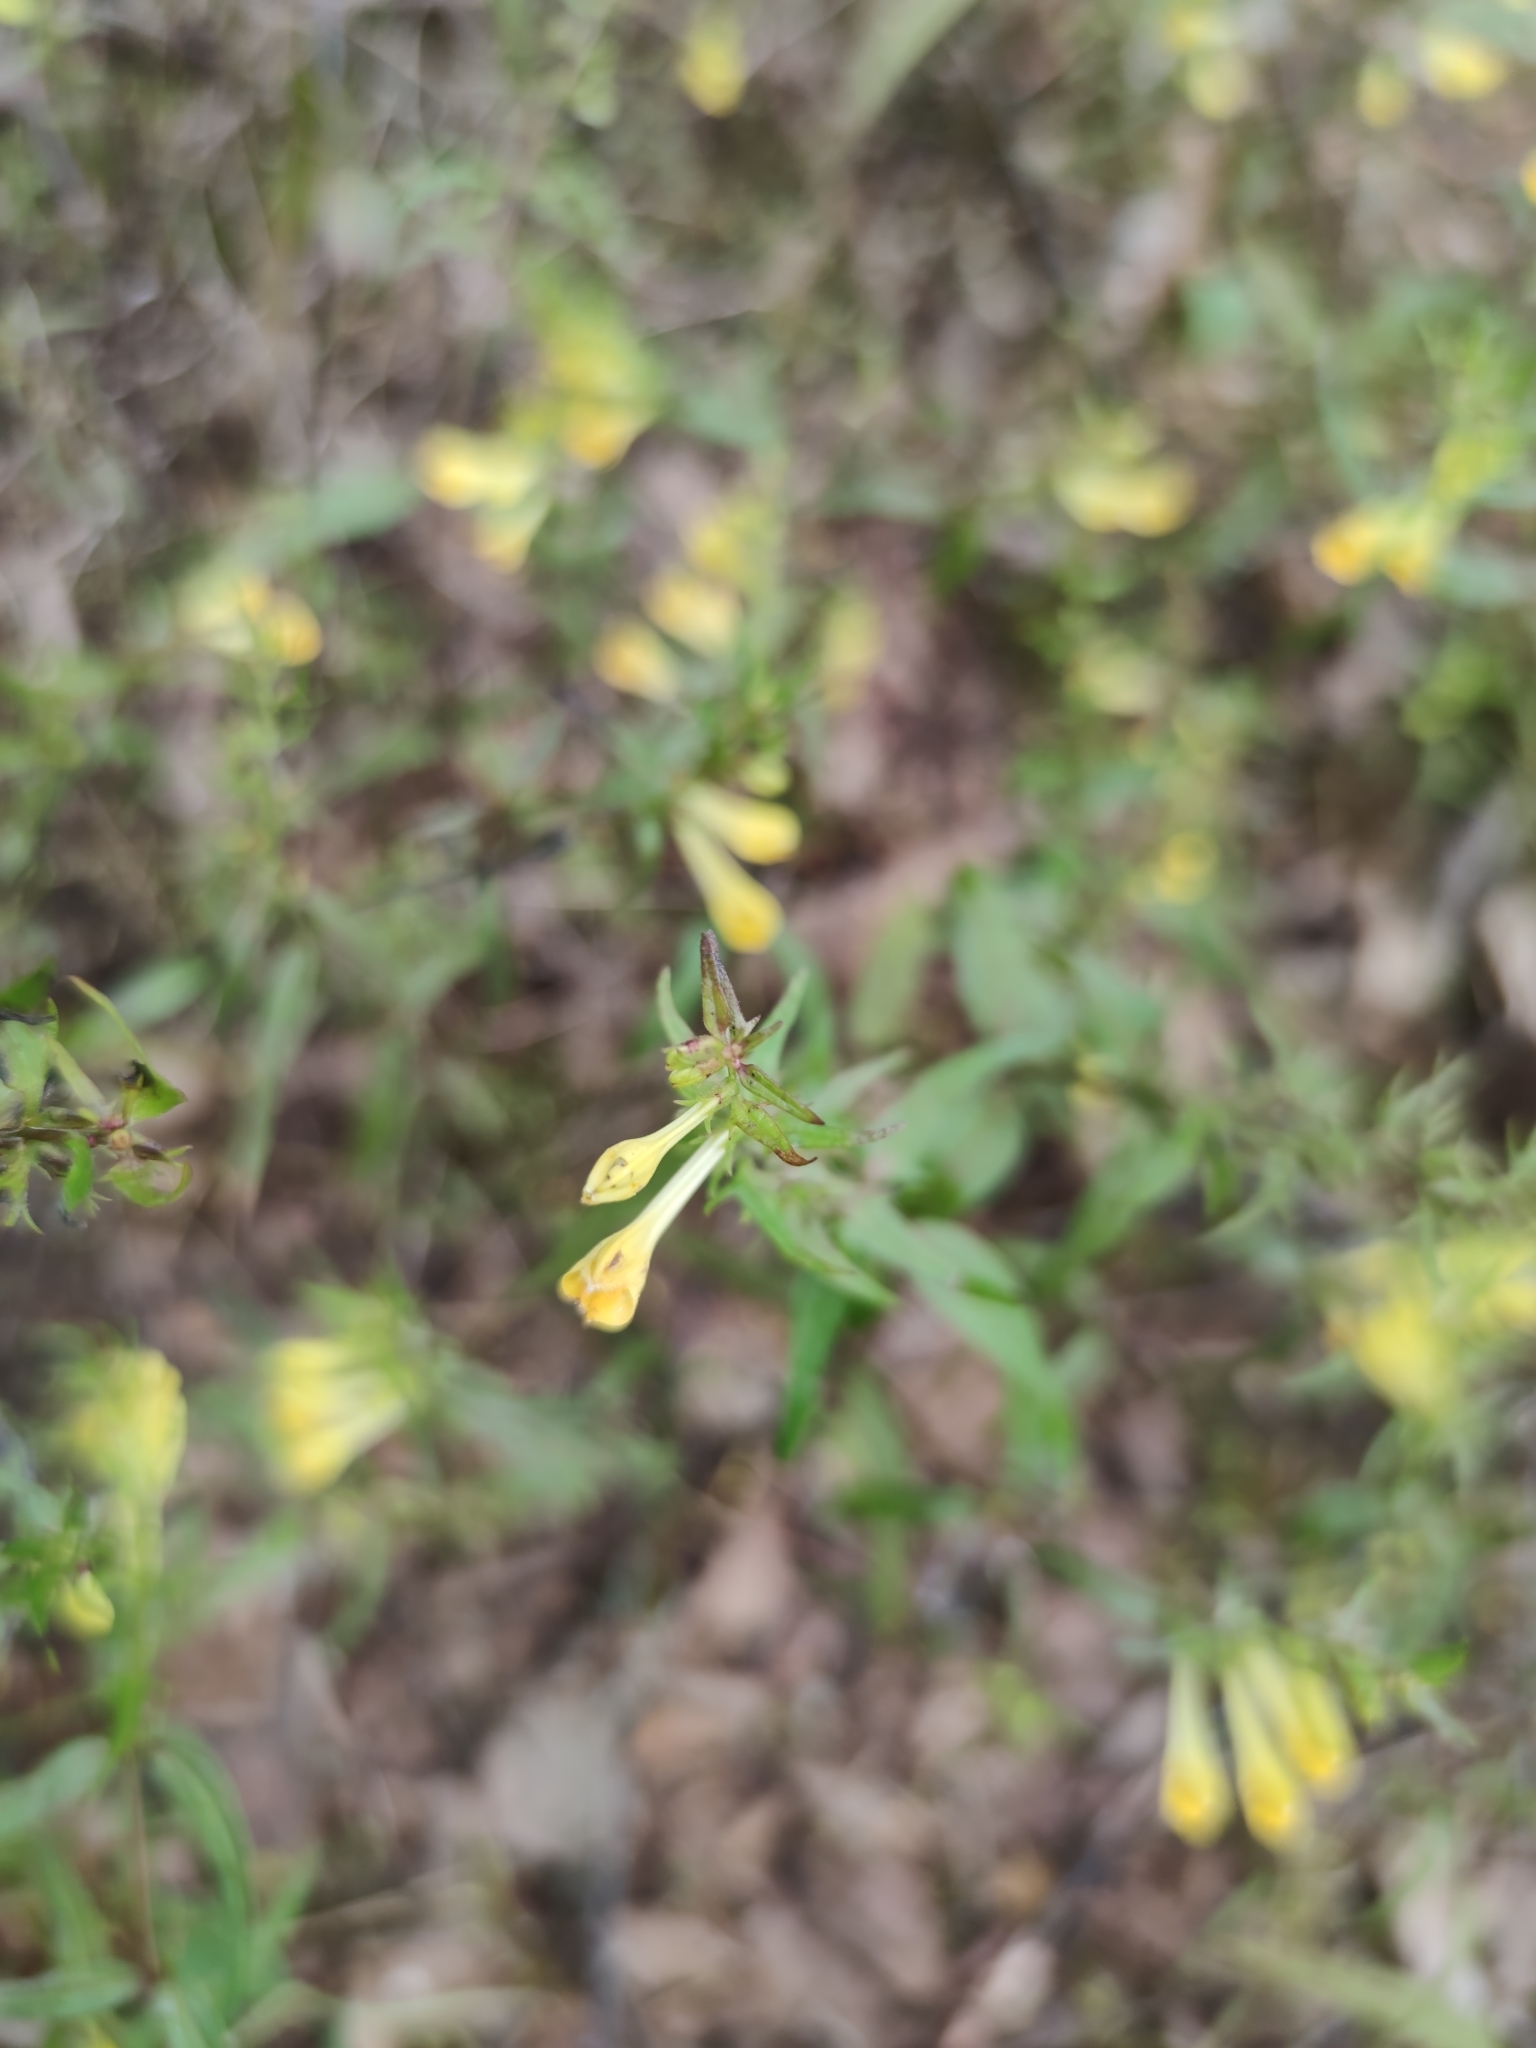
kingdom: Plantae
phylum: Tracheophyta
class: Magnoliopsida
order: Lamiales
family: Orobanchaceae
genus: Melampyrum
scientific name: Melampyrum pratense
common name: Common cow-wheat
